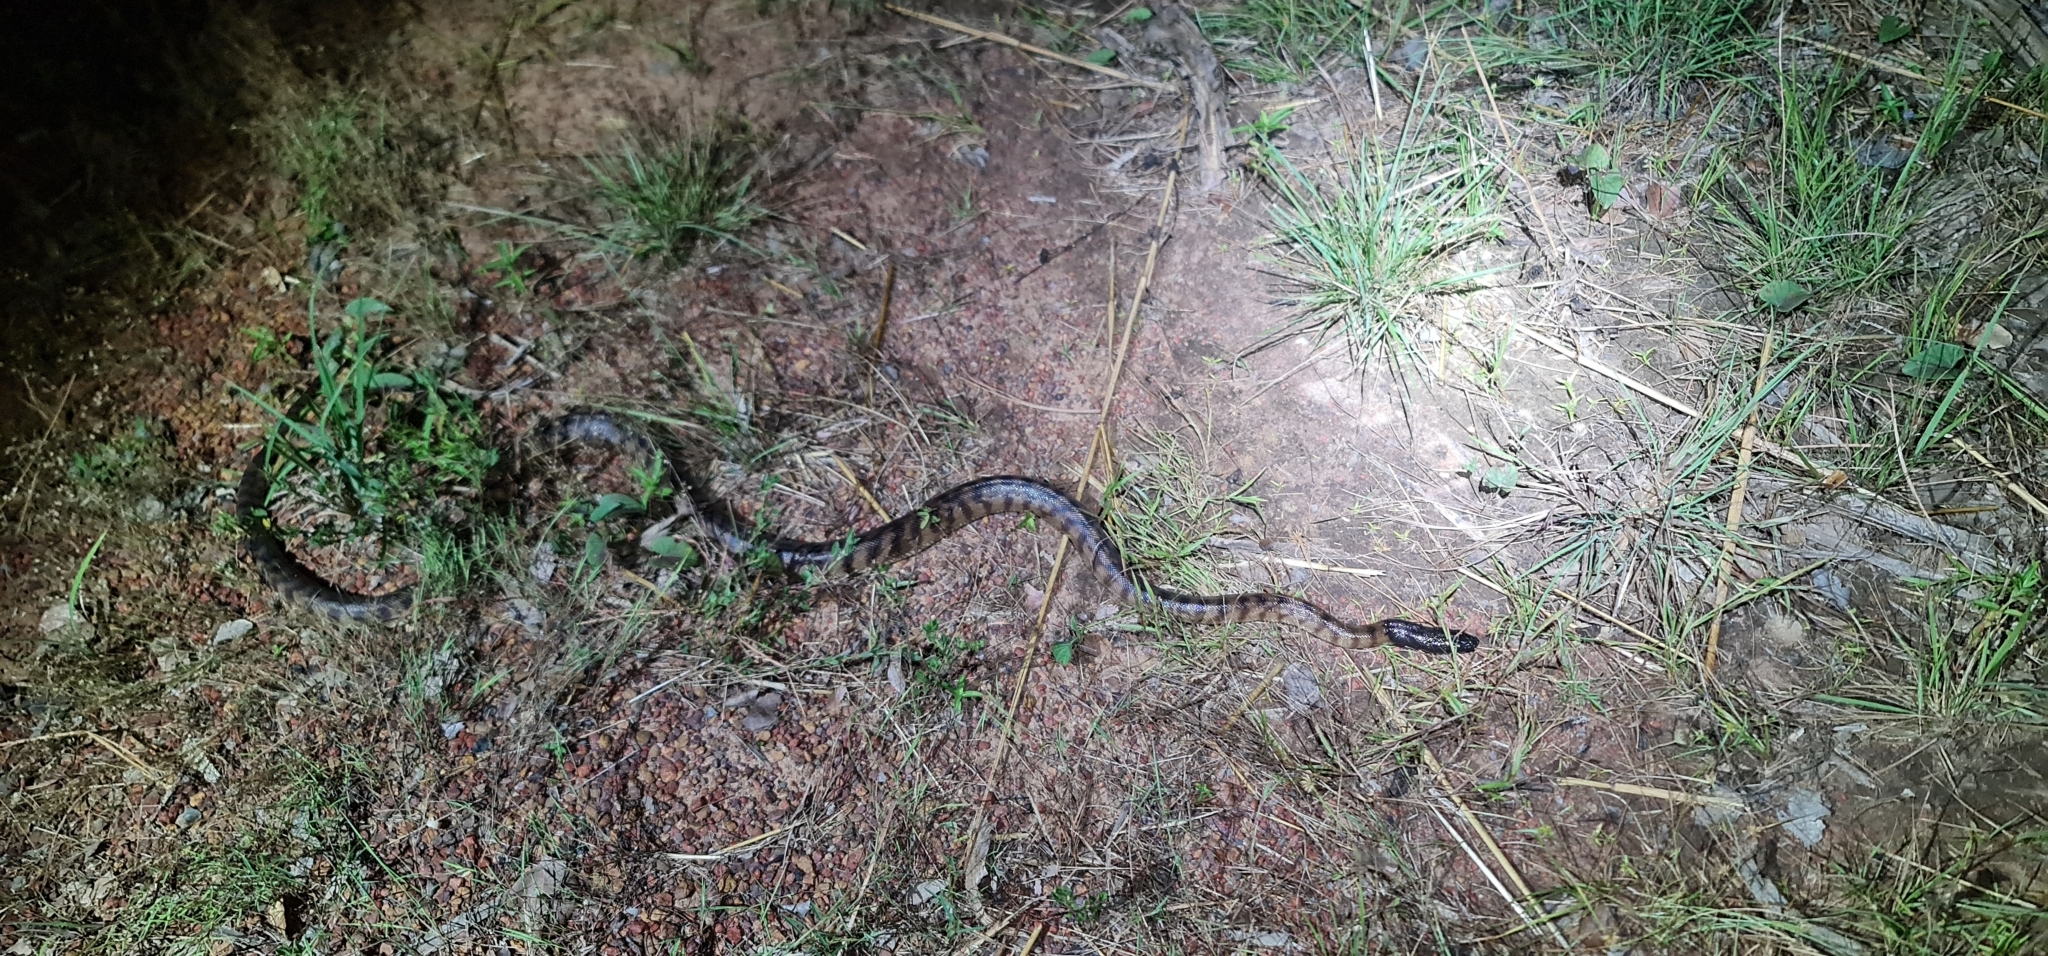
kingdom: Animalia
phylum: Chordata
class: Squamata
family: Pythonidae
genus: Aspidites
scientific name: Aspidites melanocephalus
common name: Black-headed python
